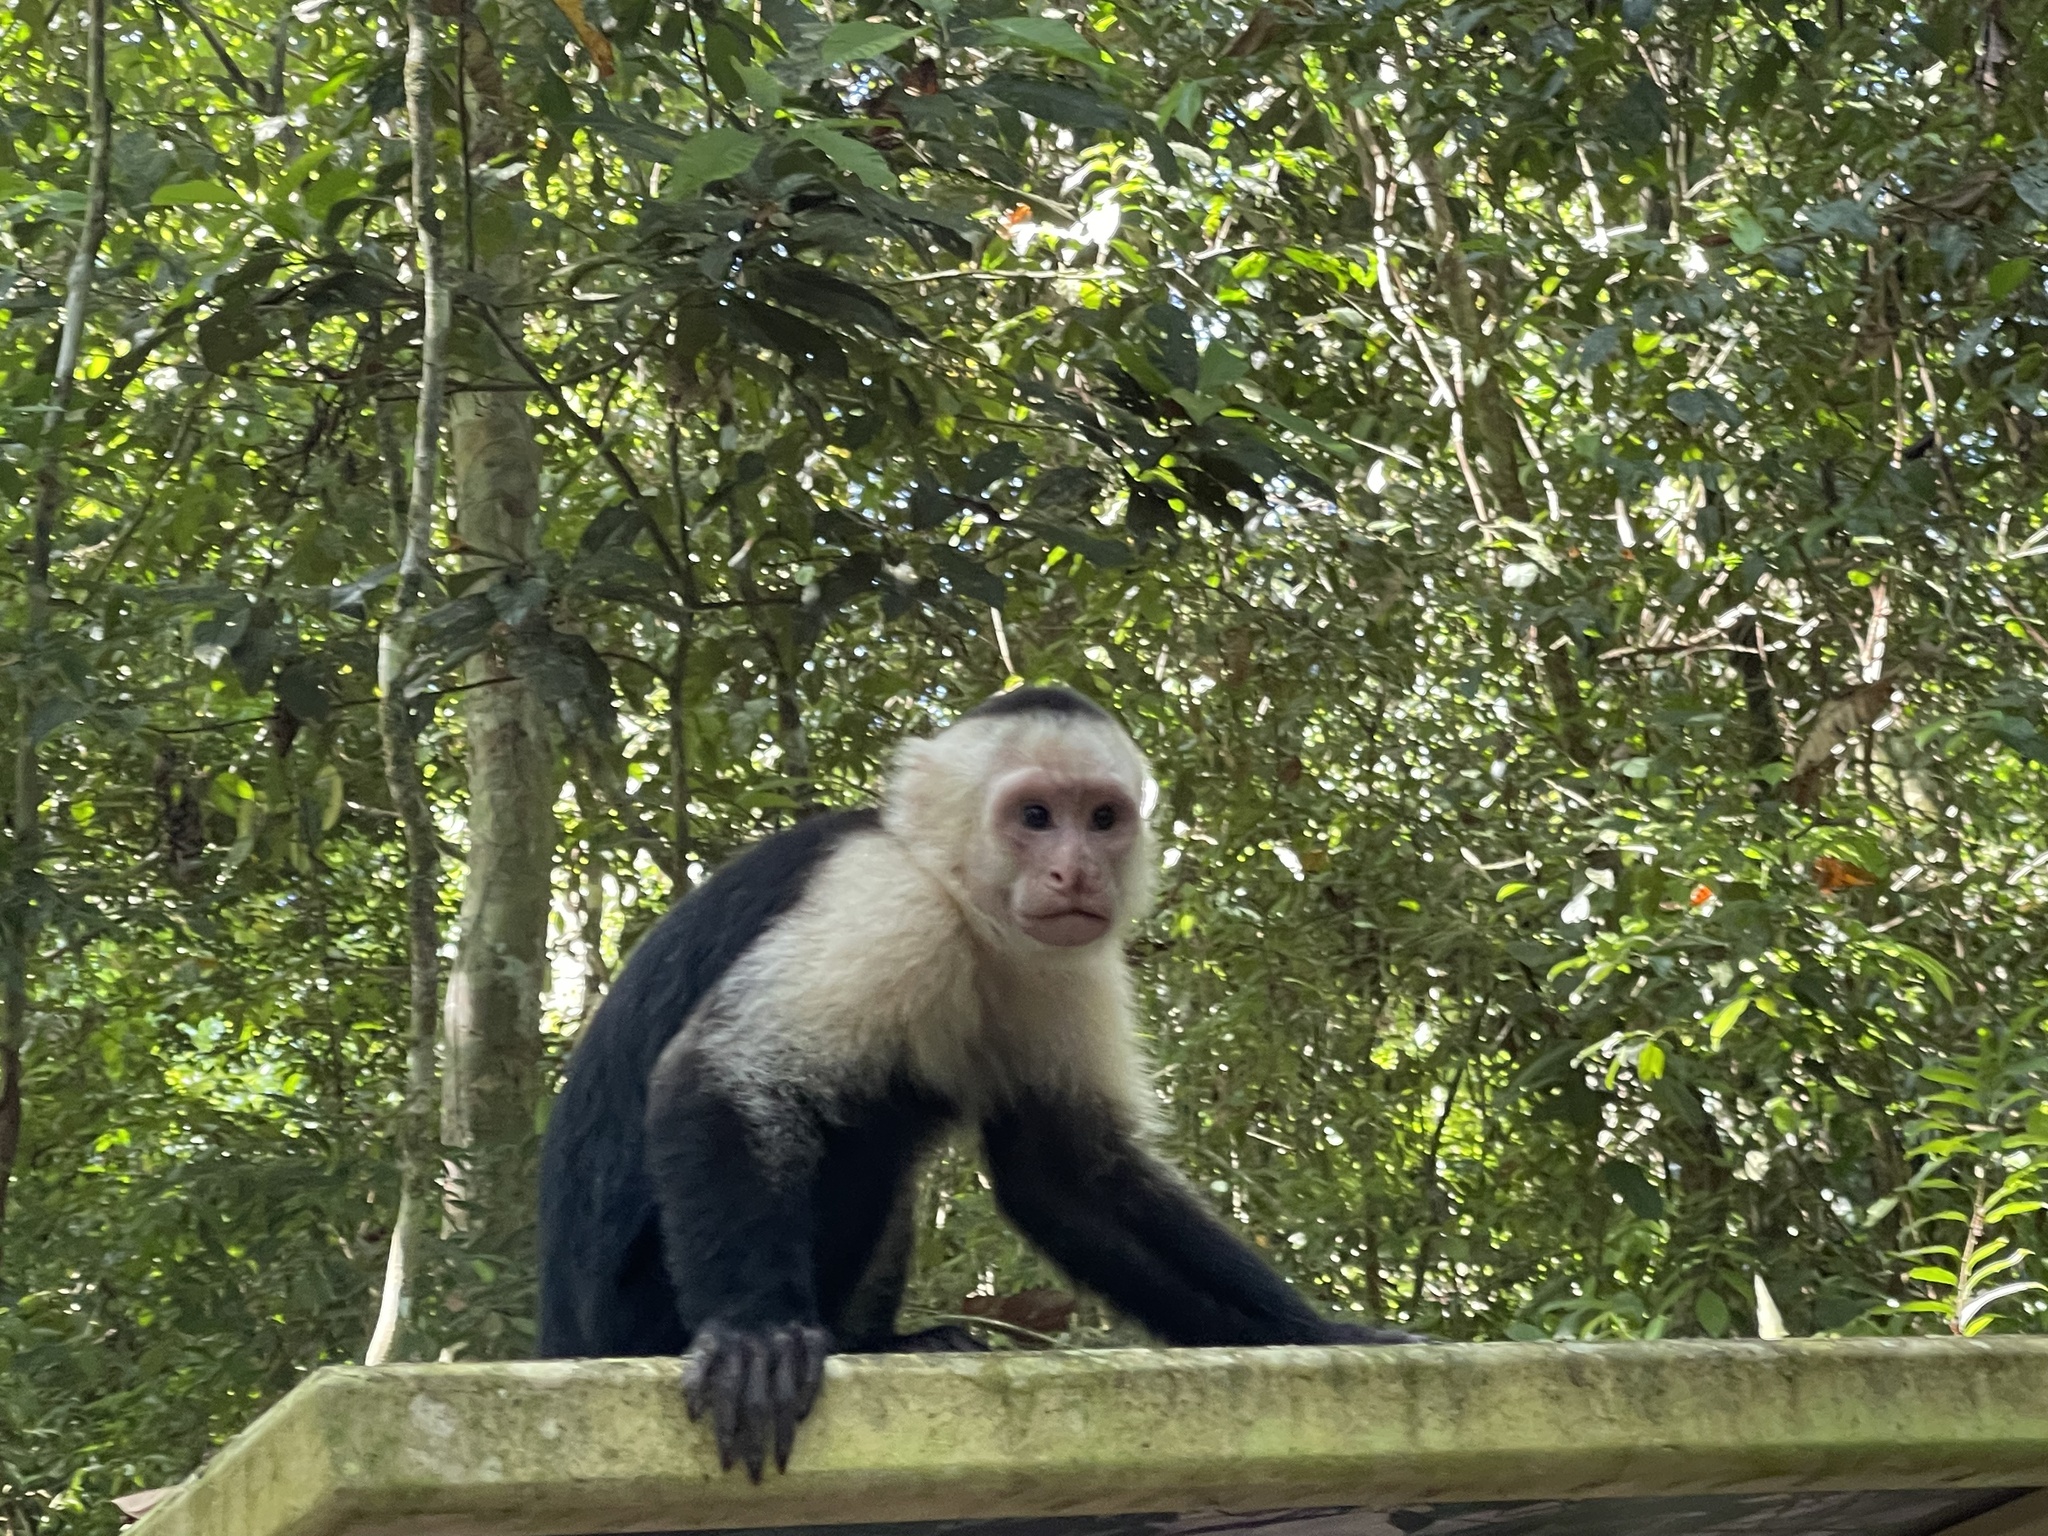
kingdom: Animalia
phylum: Chordata
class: Mammalia
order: Primates
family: Cebidae
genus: Cebus
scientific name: Cebus imitator
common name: Panamanian white-faced capuchin
